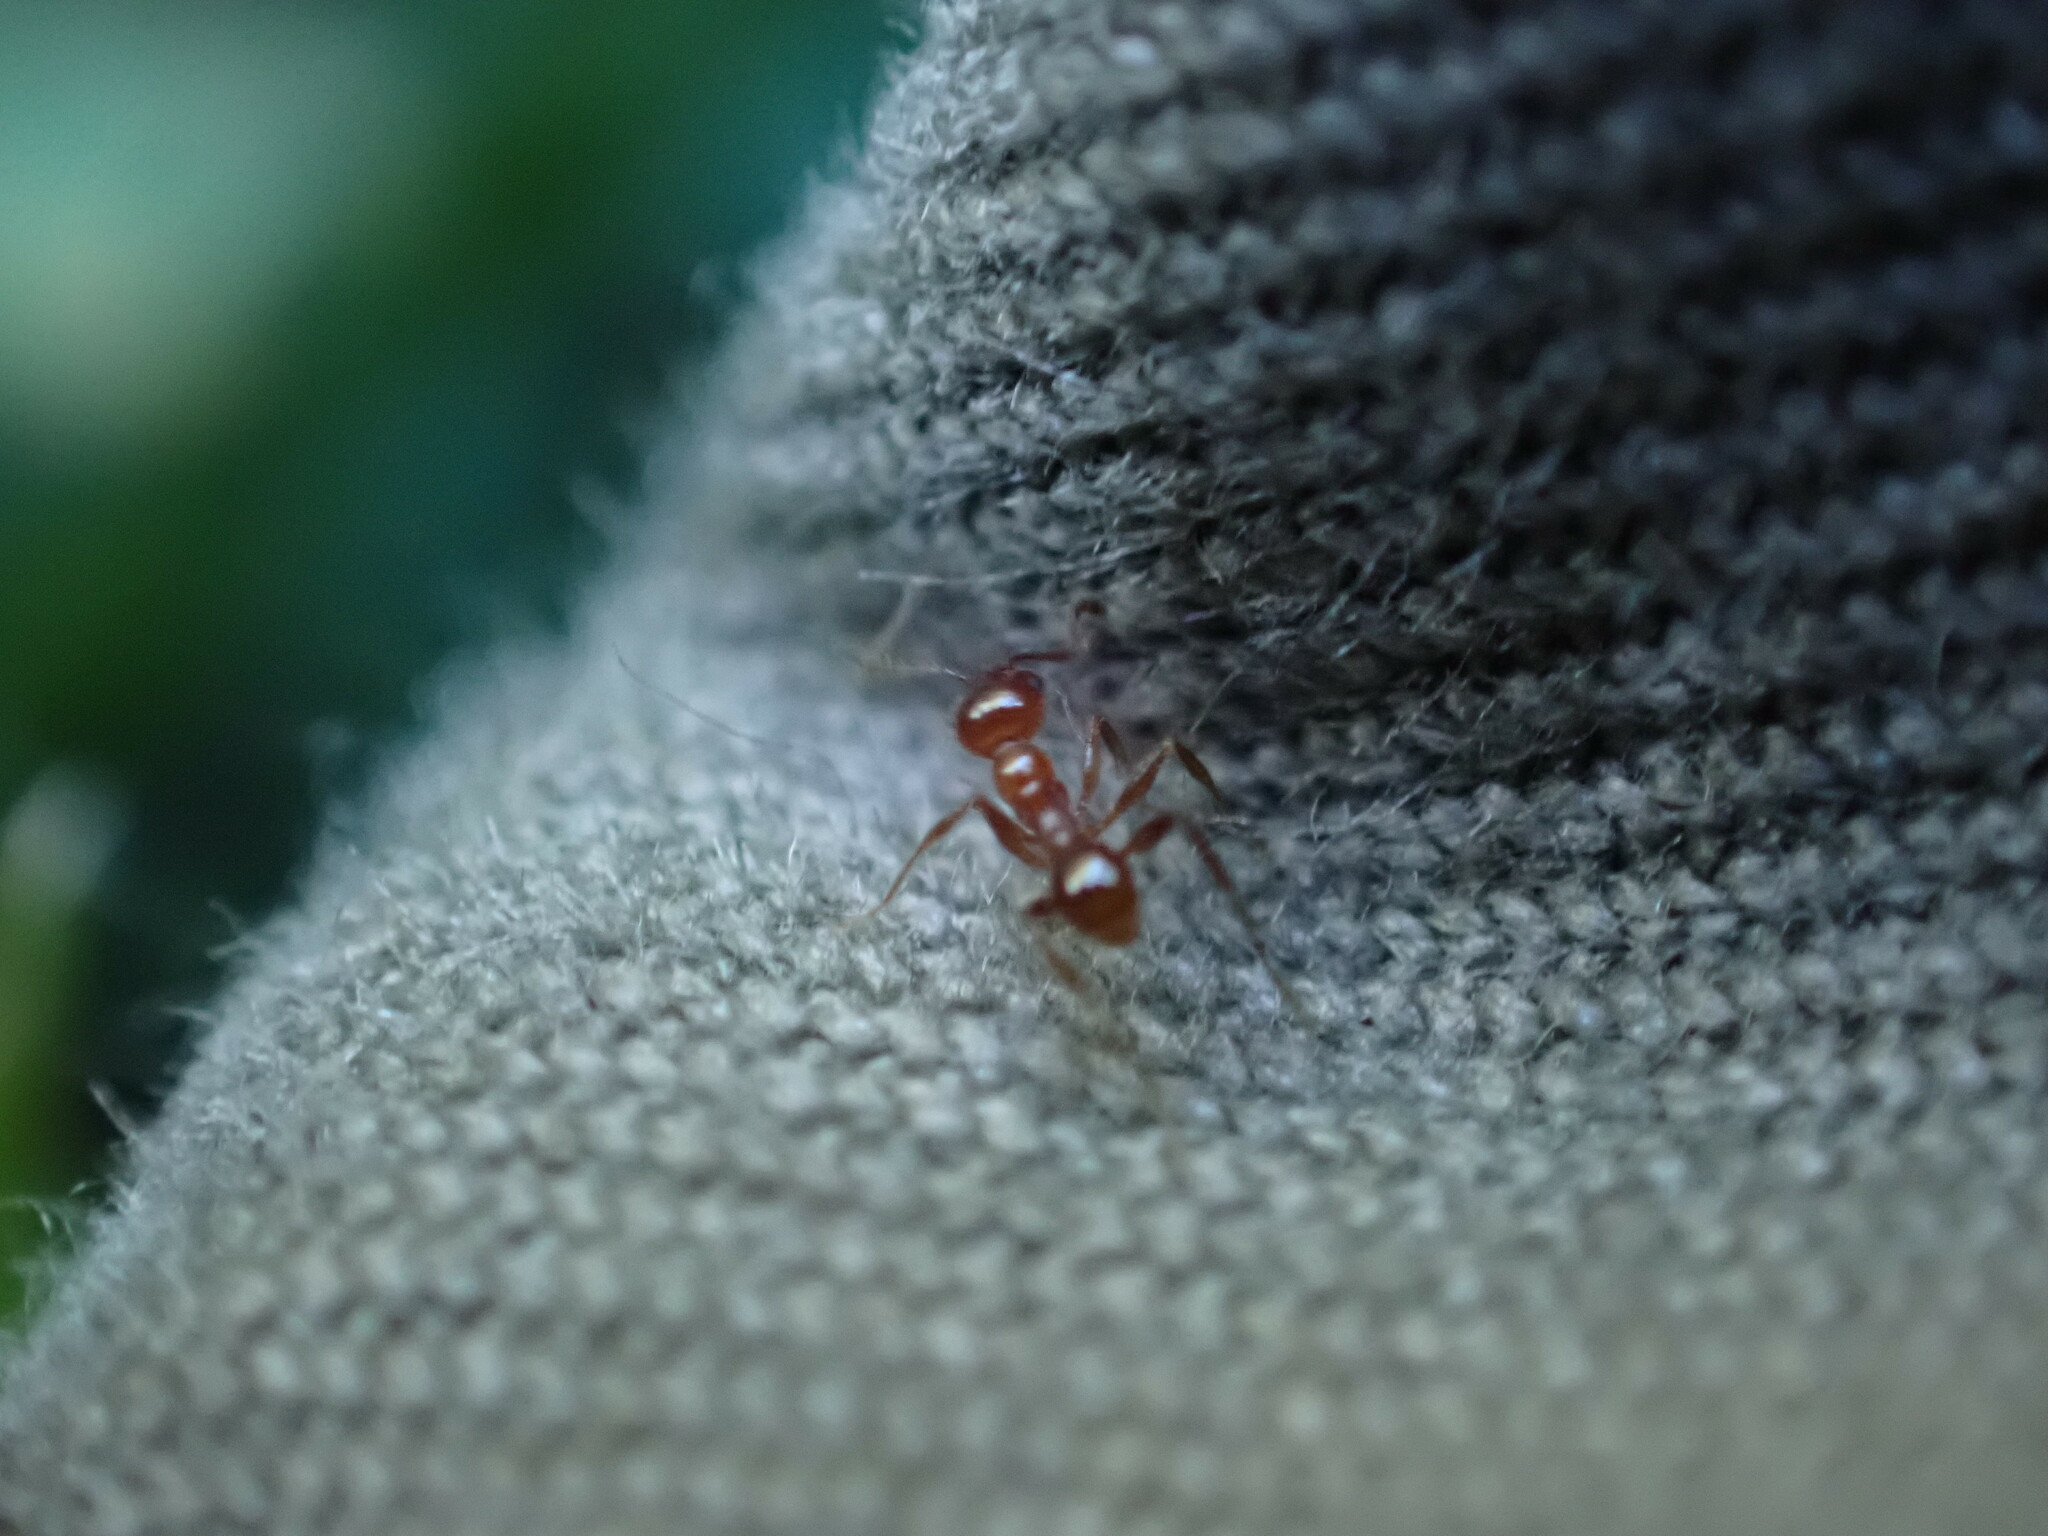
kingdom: Animalia
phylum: Arthropoda
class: Insecta
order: Hymenoptera
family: Formicidae
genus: Pheidole
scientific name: Pheidole dentata
